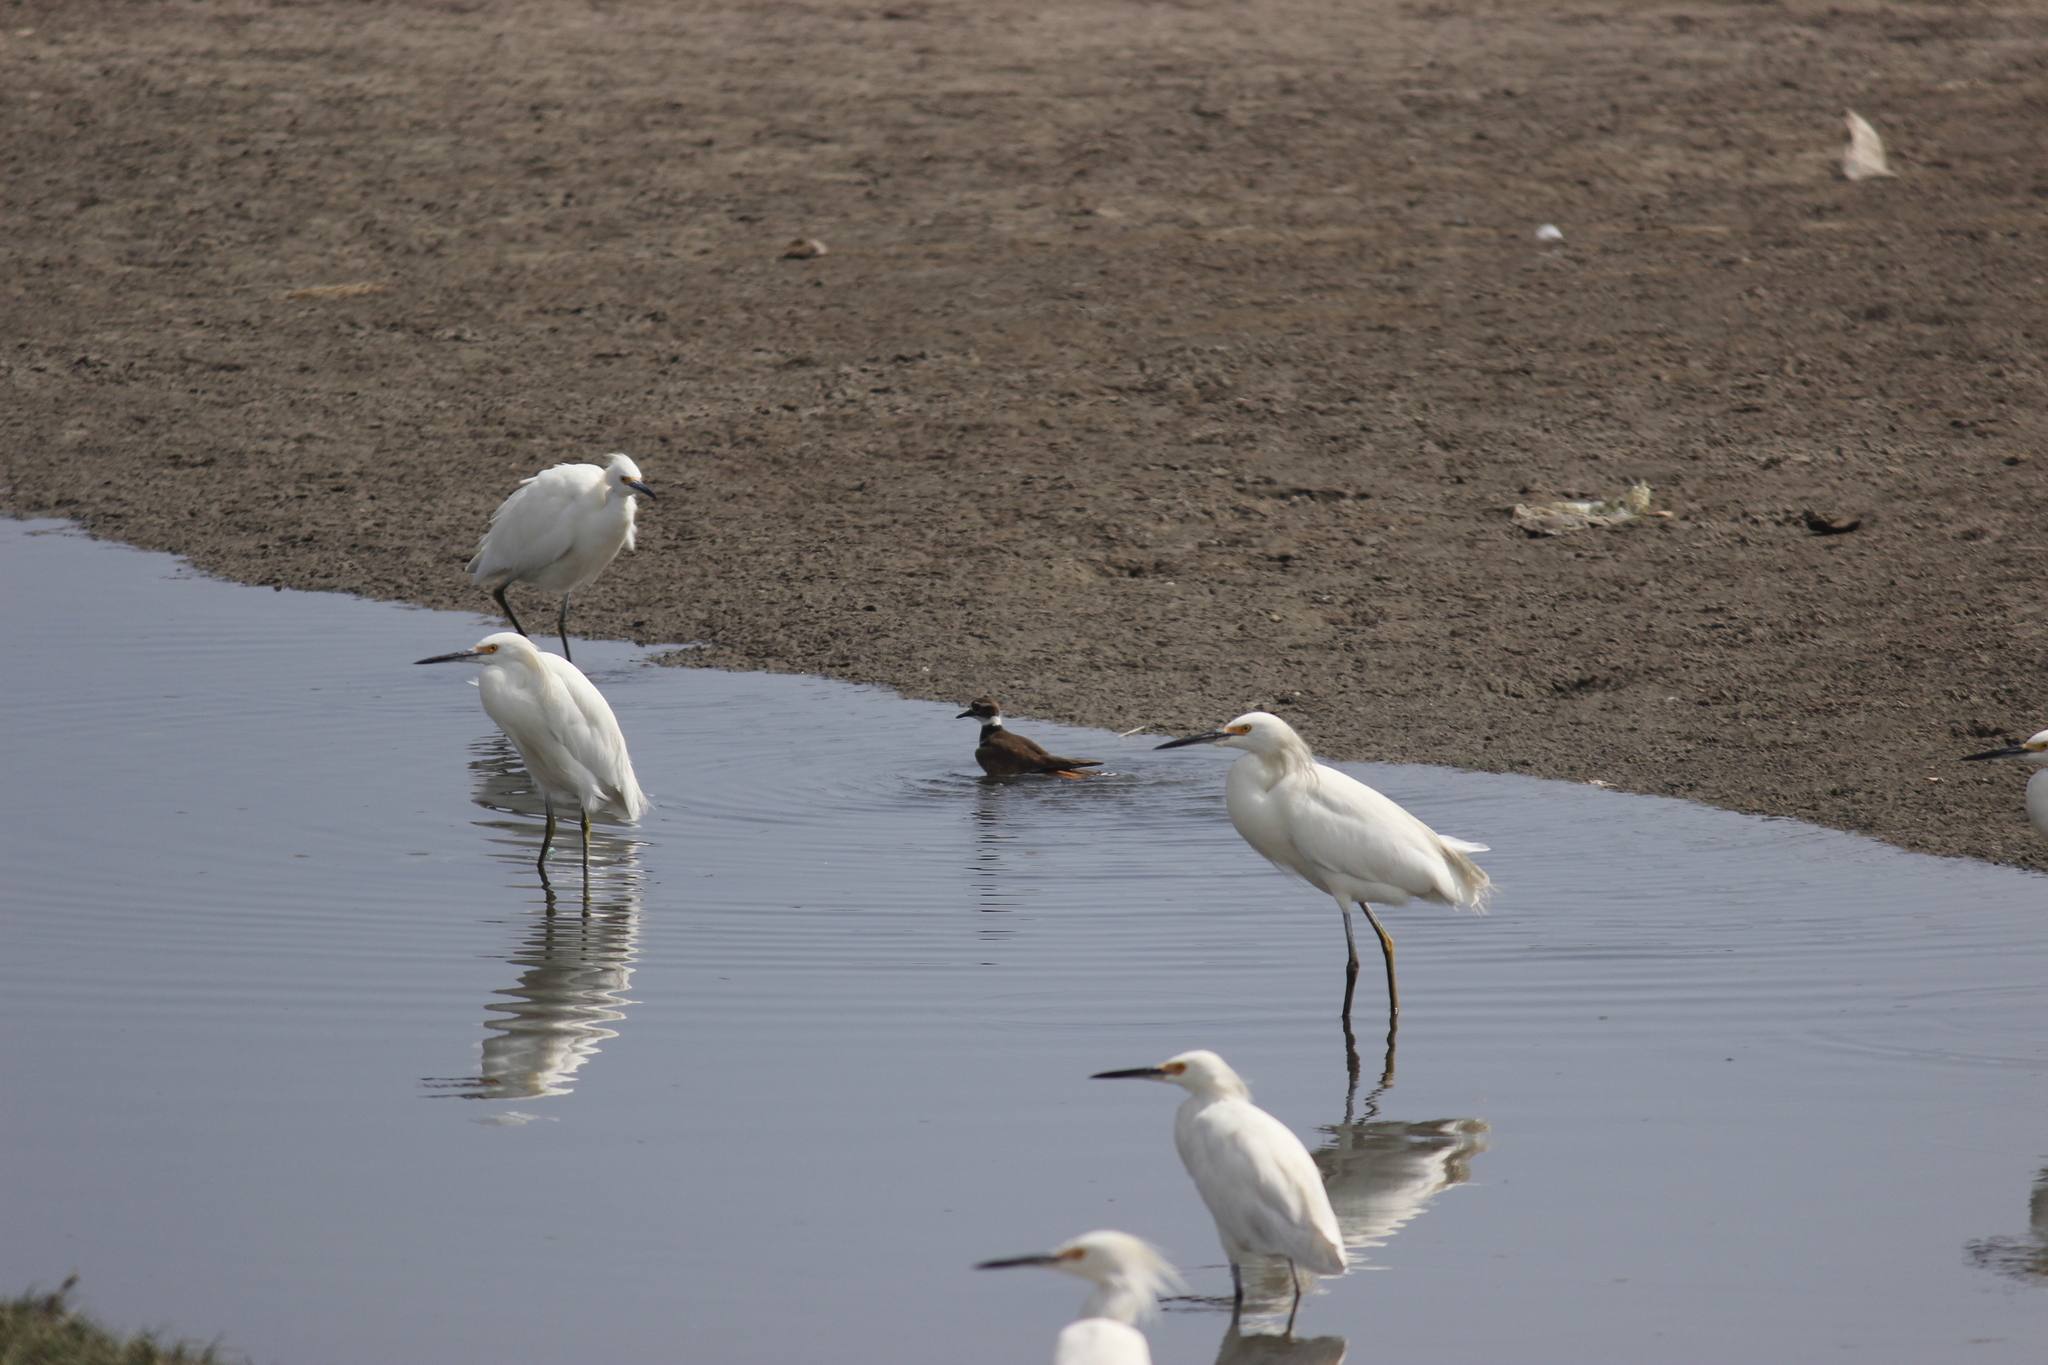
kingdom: Animalia
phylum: Chordata
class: Aves
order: Charadriiformes
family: Charadriidae
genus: Charadrius
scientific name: Charadrius vociferus
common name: Killdeer
